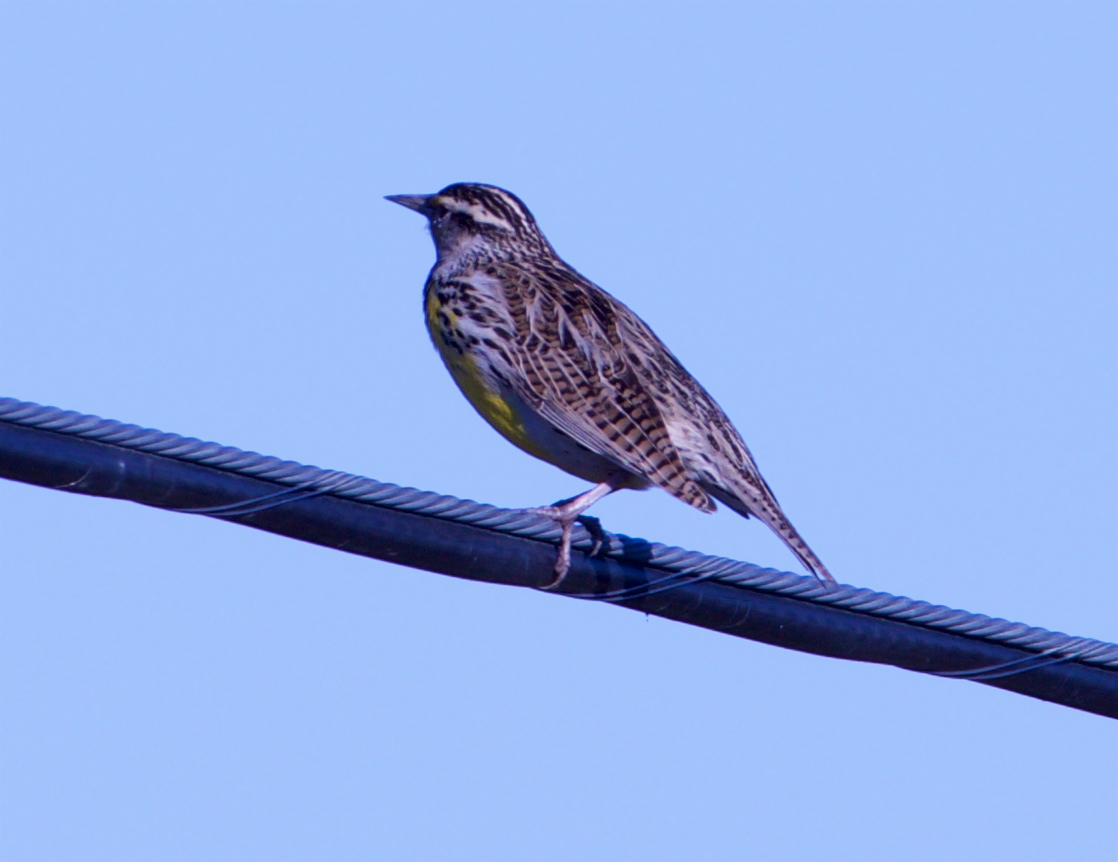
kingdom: Animalia
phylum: Chordata
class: Aves
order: Passeriformes
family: Icteridae
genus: Sturnella
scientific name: Sturnella neglecta
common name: Western meadowlark
